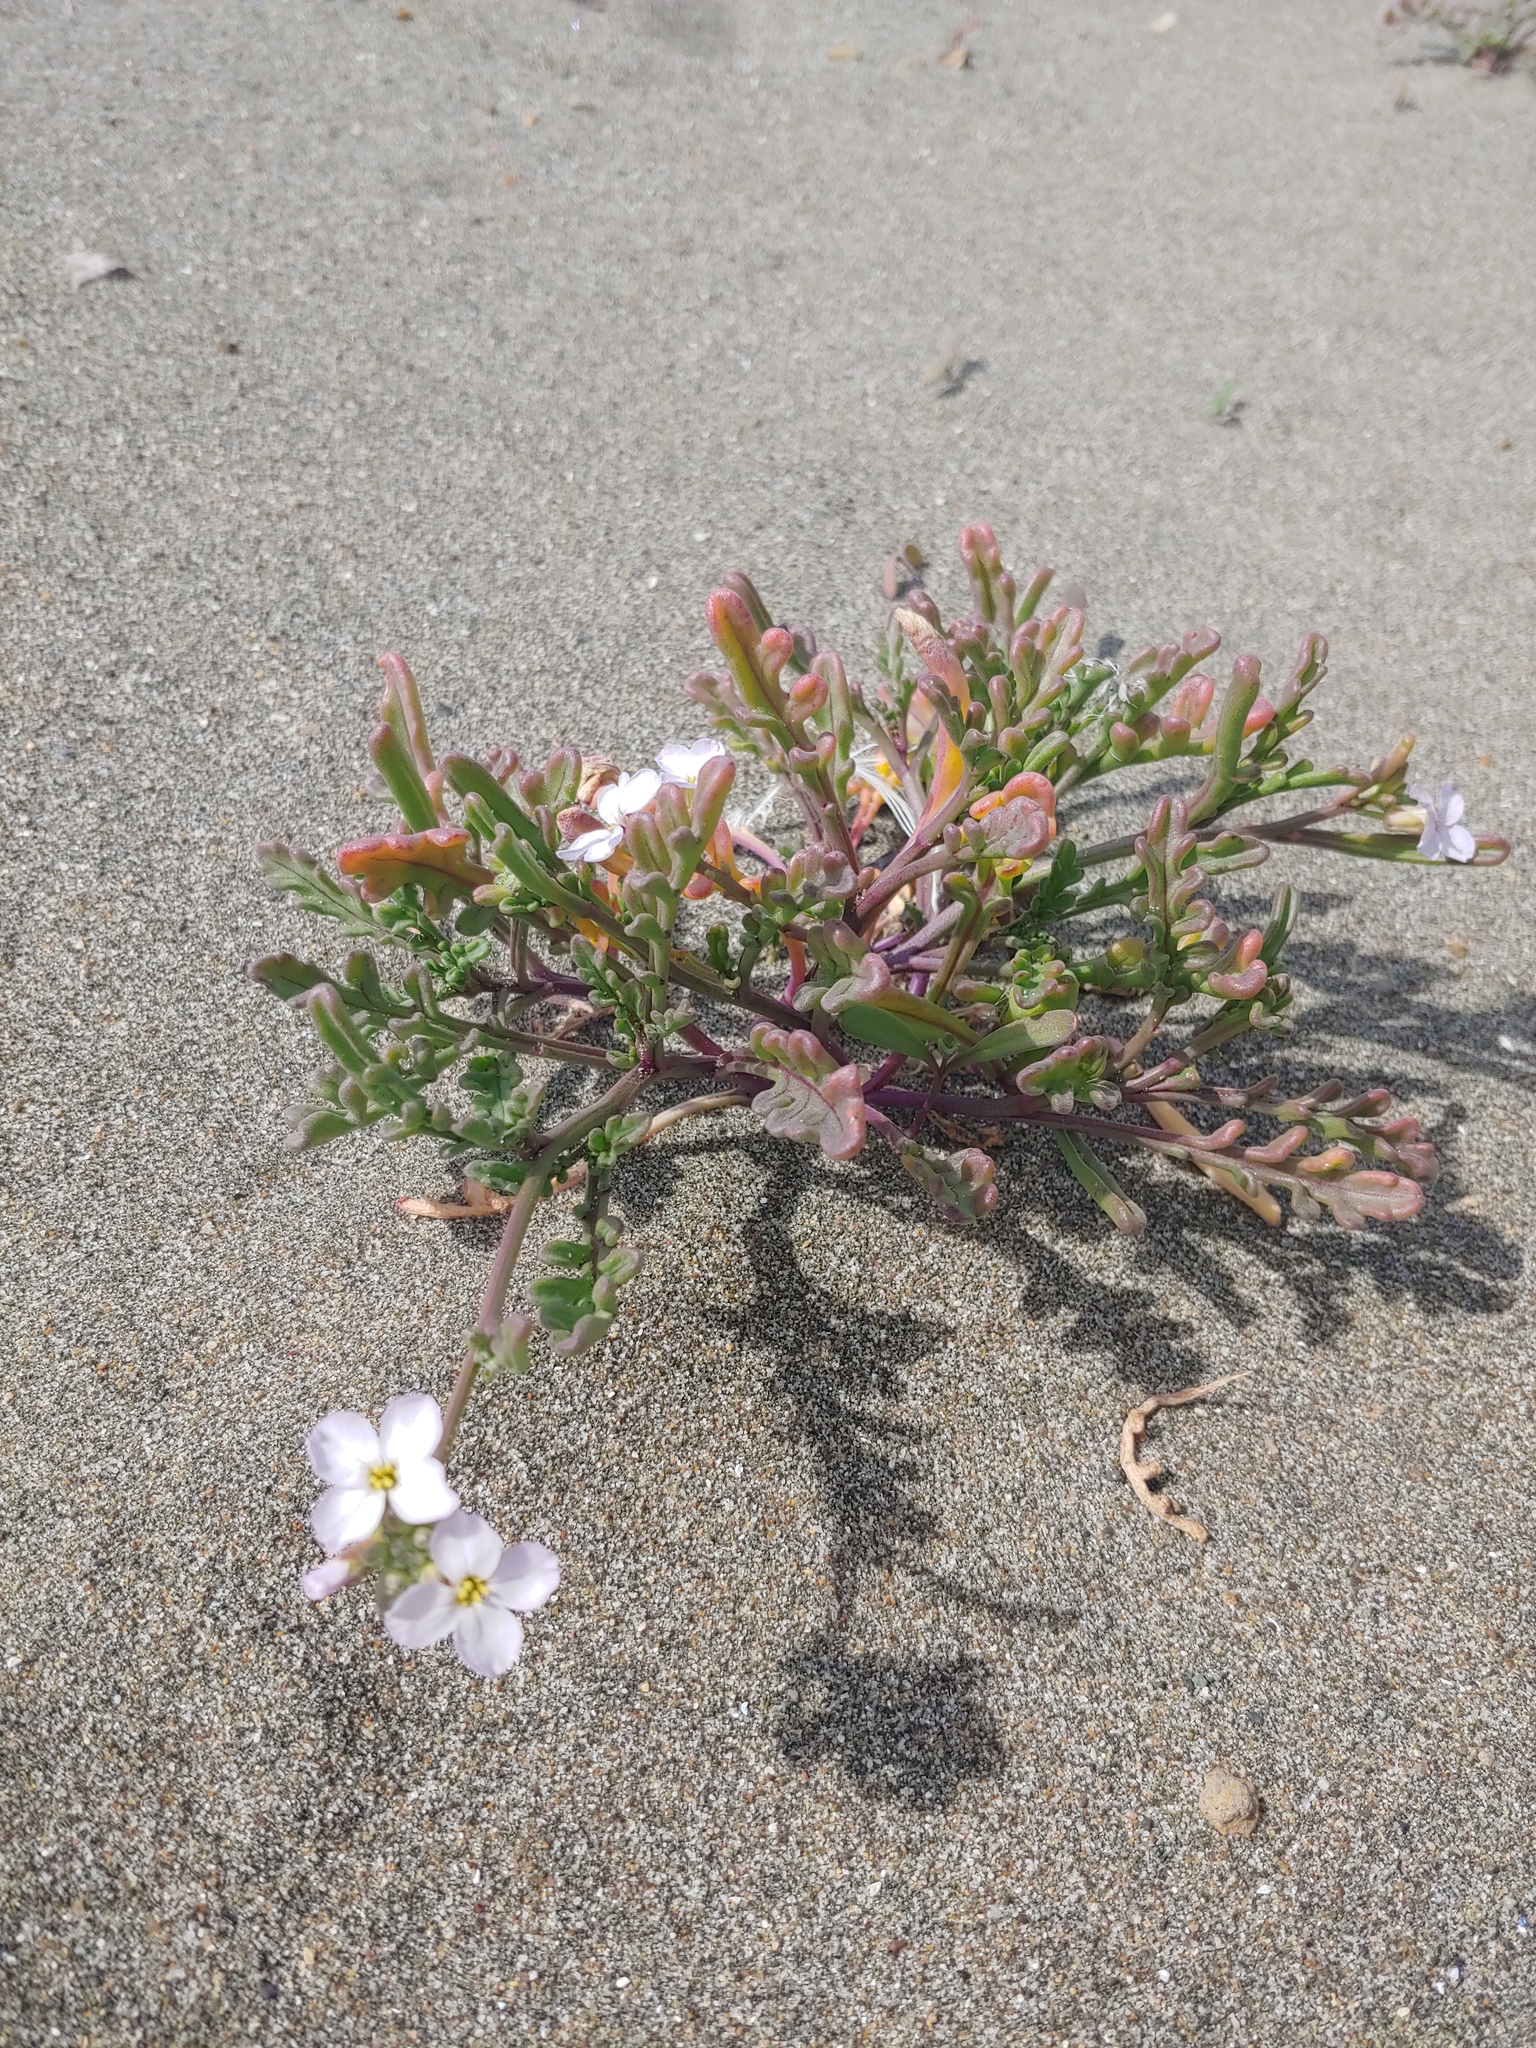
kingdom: Plantae
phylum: Tracheophyta
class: Magnoliopsida
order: Brassicales
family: Brassicaceae
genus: Cakile
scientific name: Cakile maritima
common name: Sea rocket
